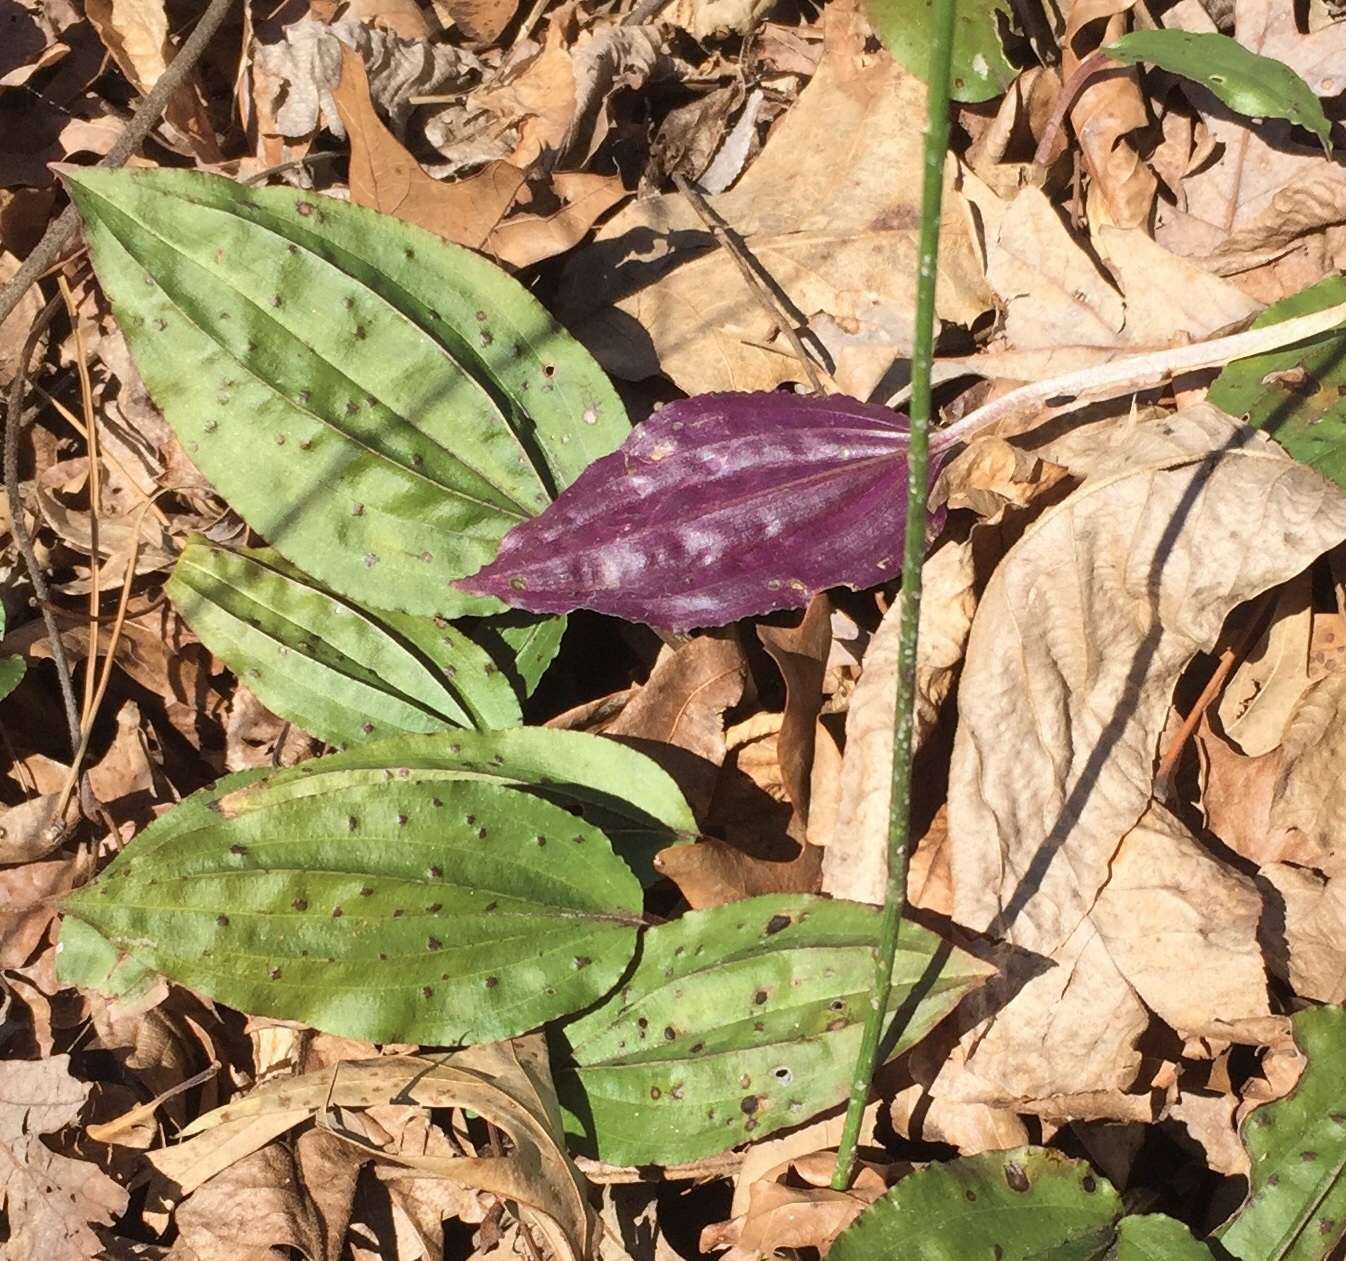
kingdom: Plantae
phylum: Tracheophyta
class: Liliopsida
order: Asparagales
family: Orchidaceae
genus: Tipularia
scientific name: Tipularia discolor
